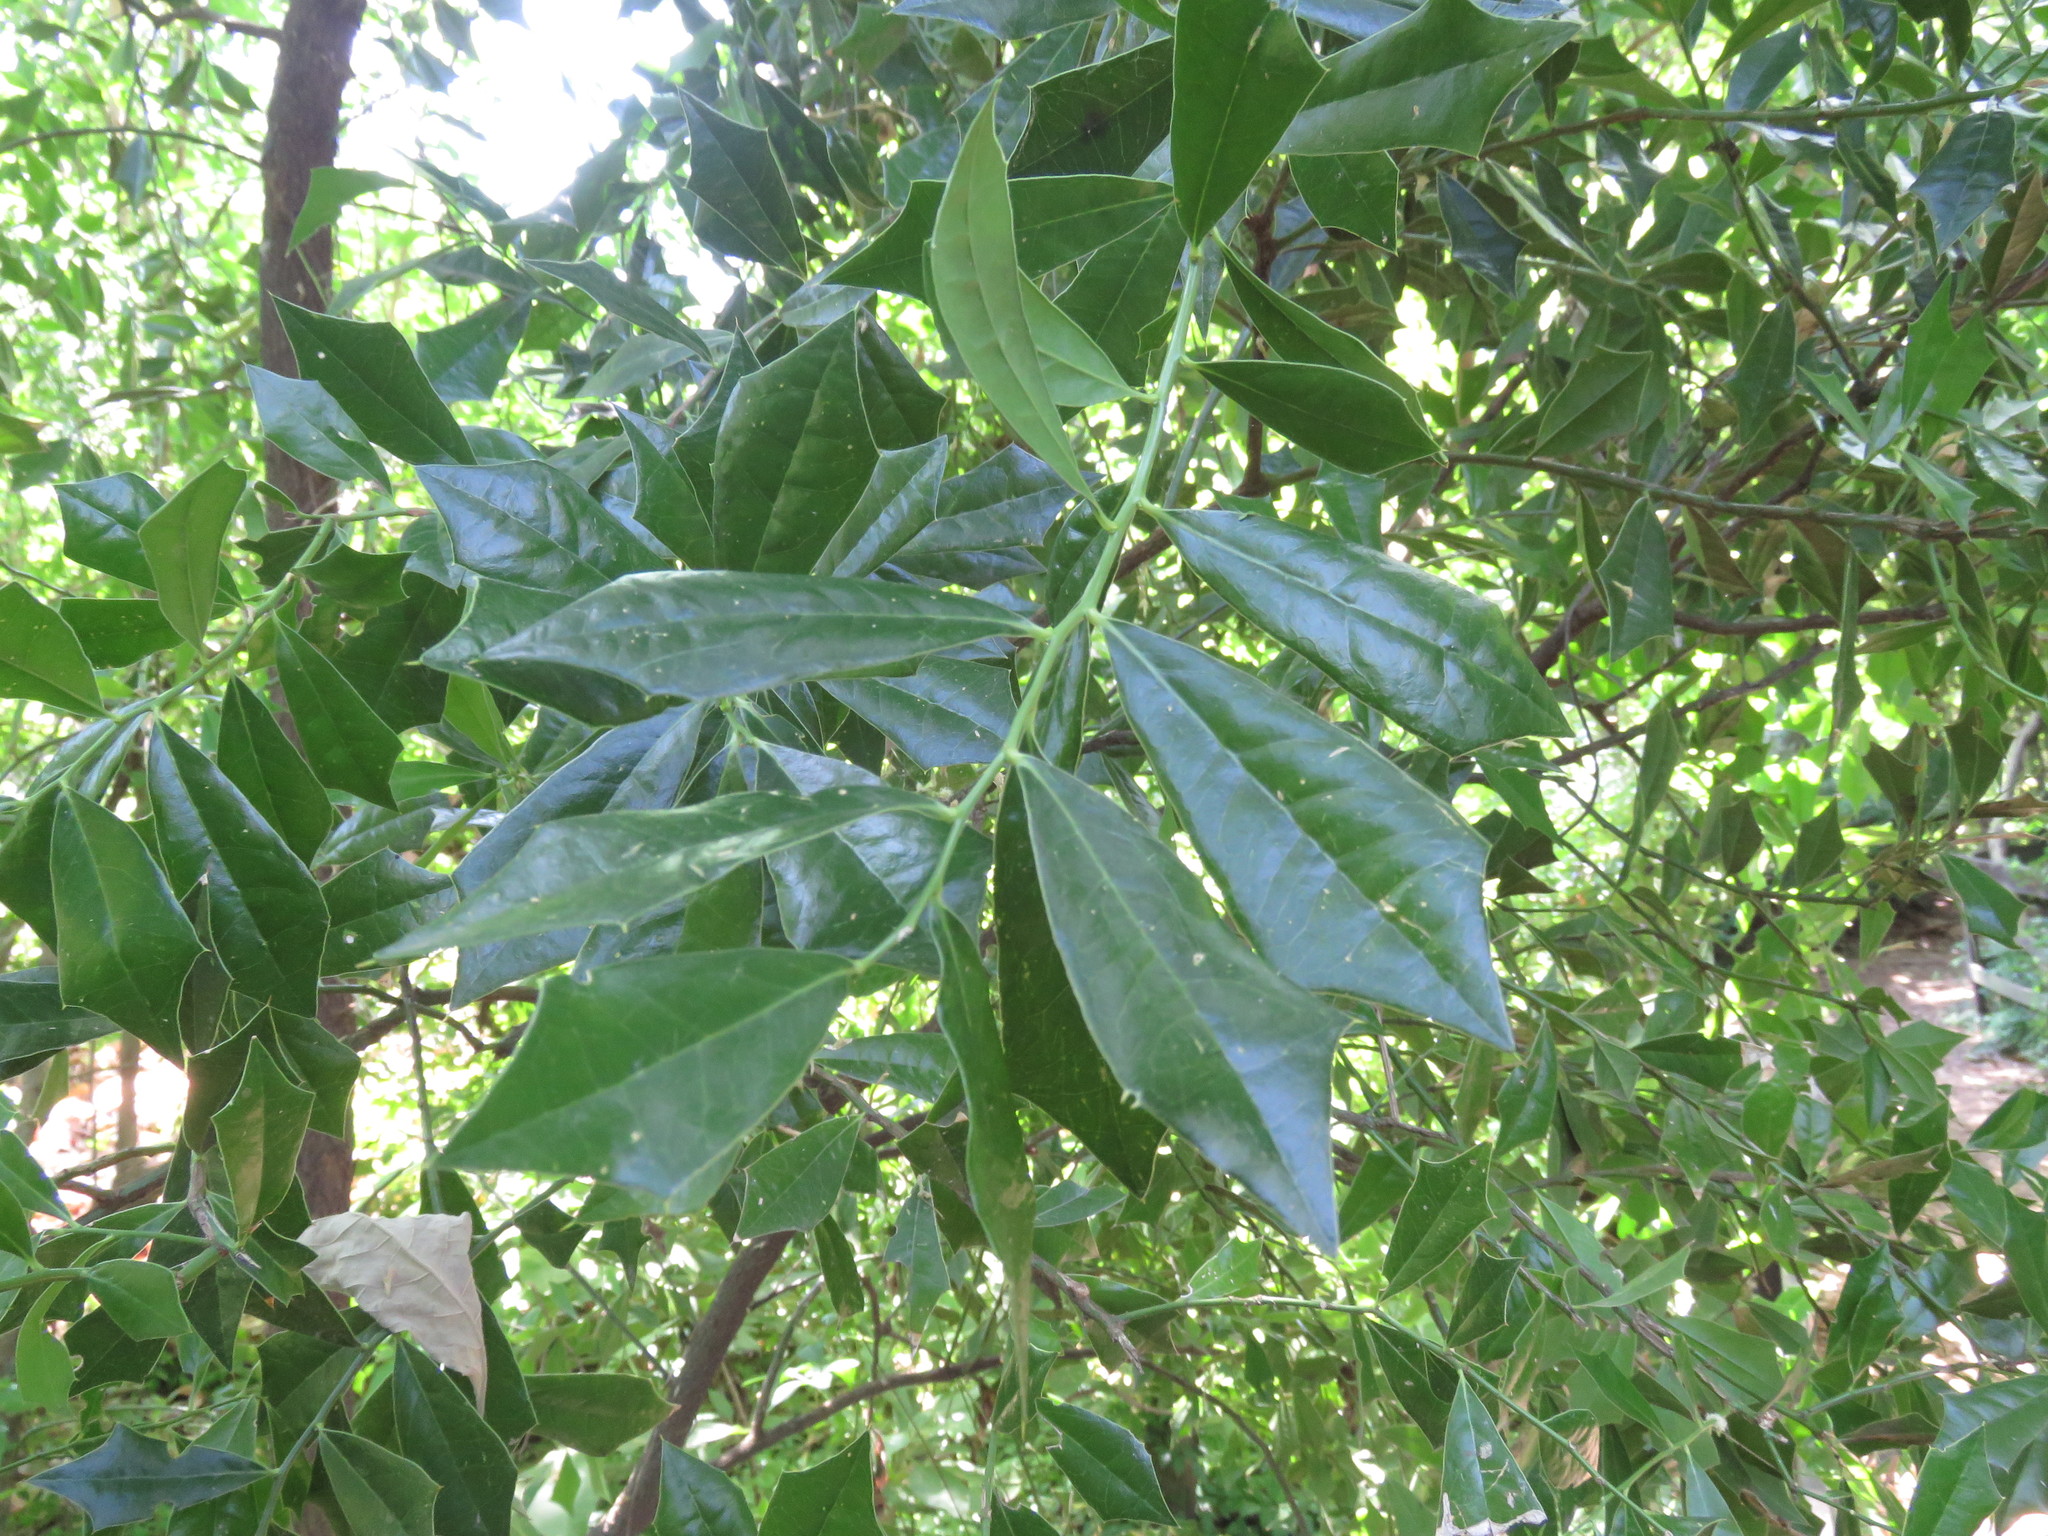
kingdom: Plantae
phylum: Tracheophyta
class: Magnoliopsida
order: Santalales
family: Cervantesiaceae
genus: Jodina
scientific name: Jodina rhombifolia
